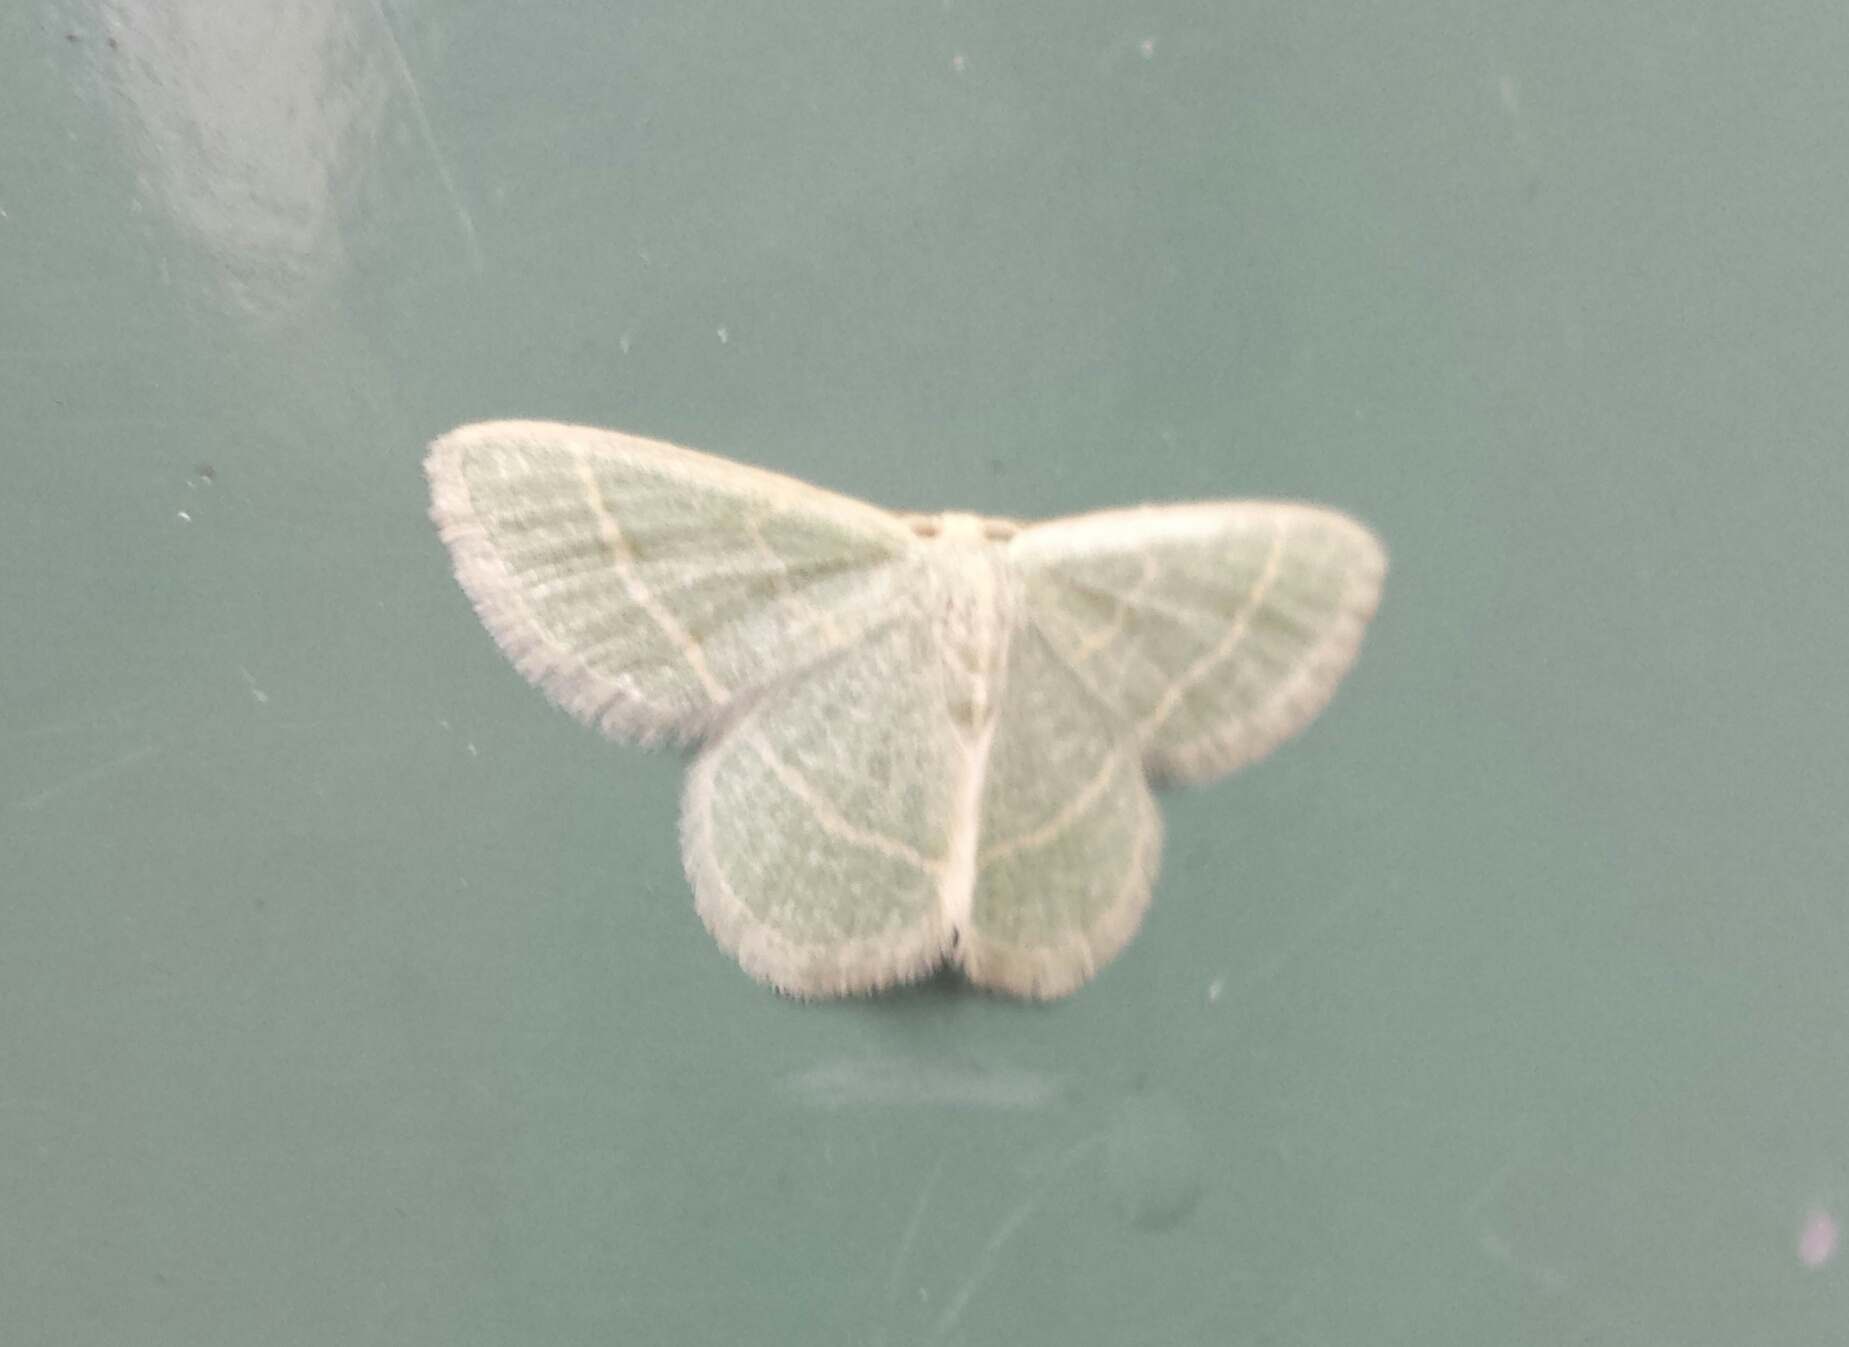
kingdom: Animalia
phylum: Arthropoda
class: Insecta
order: Lepidoptera
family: Geometridae
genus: Chlorochlamys
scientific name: Chlorochlamys chloroleucaria
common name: Blackberry looper
